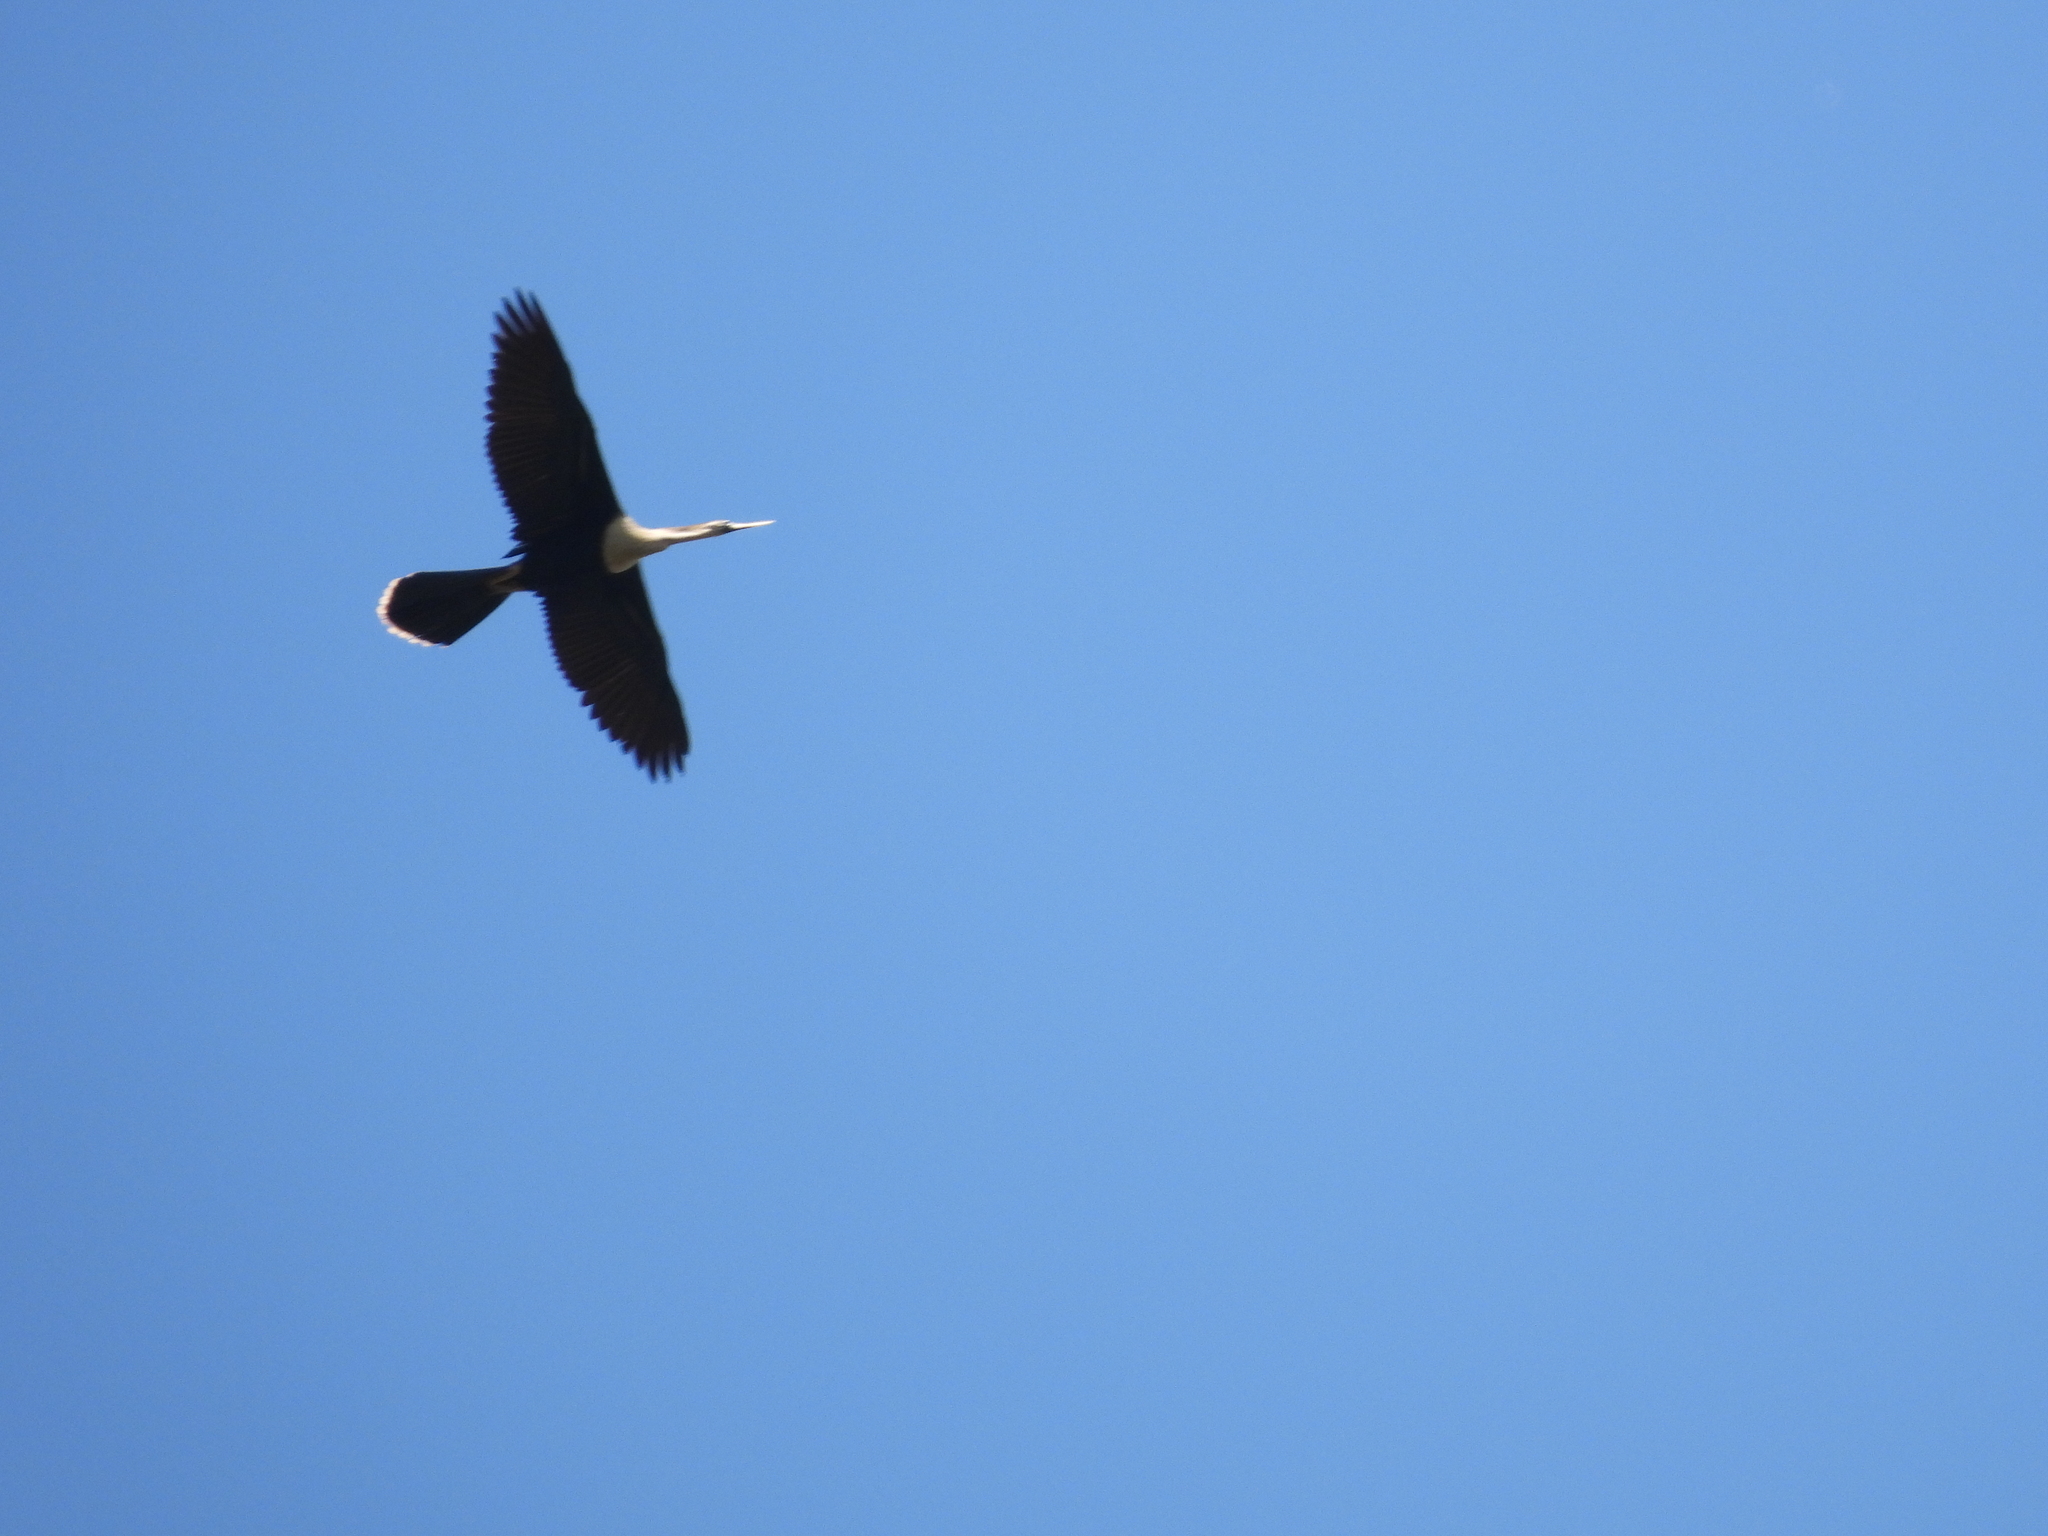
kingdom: Animalia
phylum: Chordata
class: Aves
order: Suliformes
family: Anhingidae
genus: Anhinga
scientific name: Anhinga anhinga
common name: Anhinga
